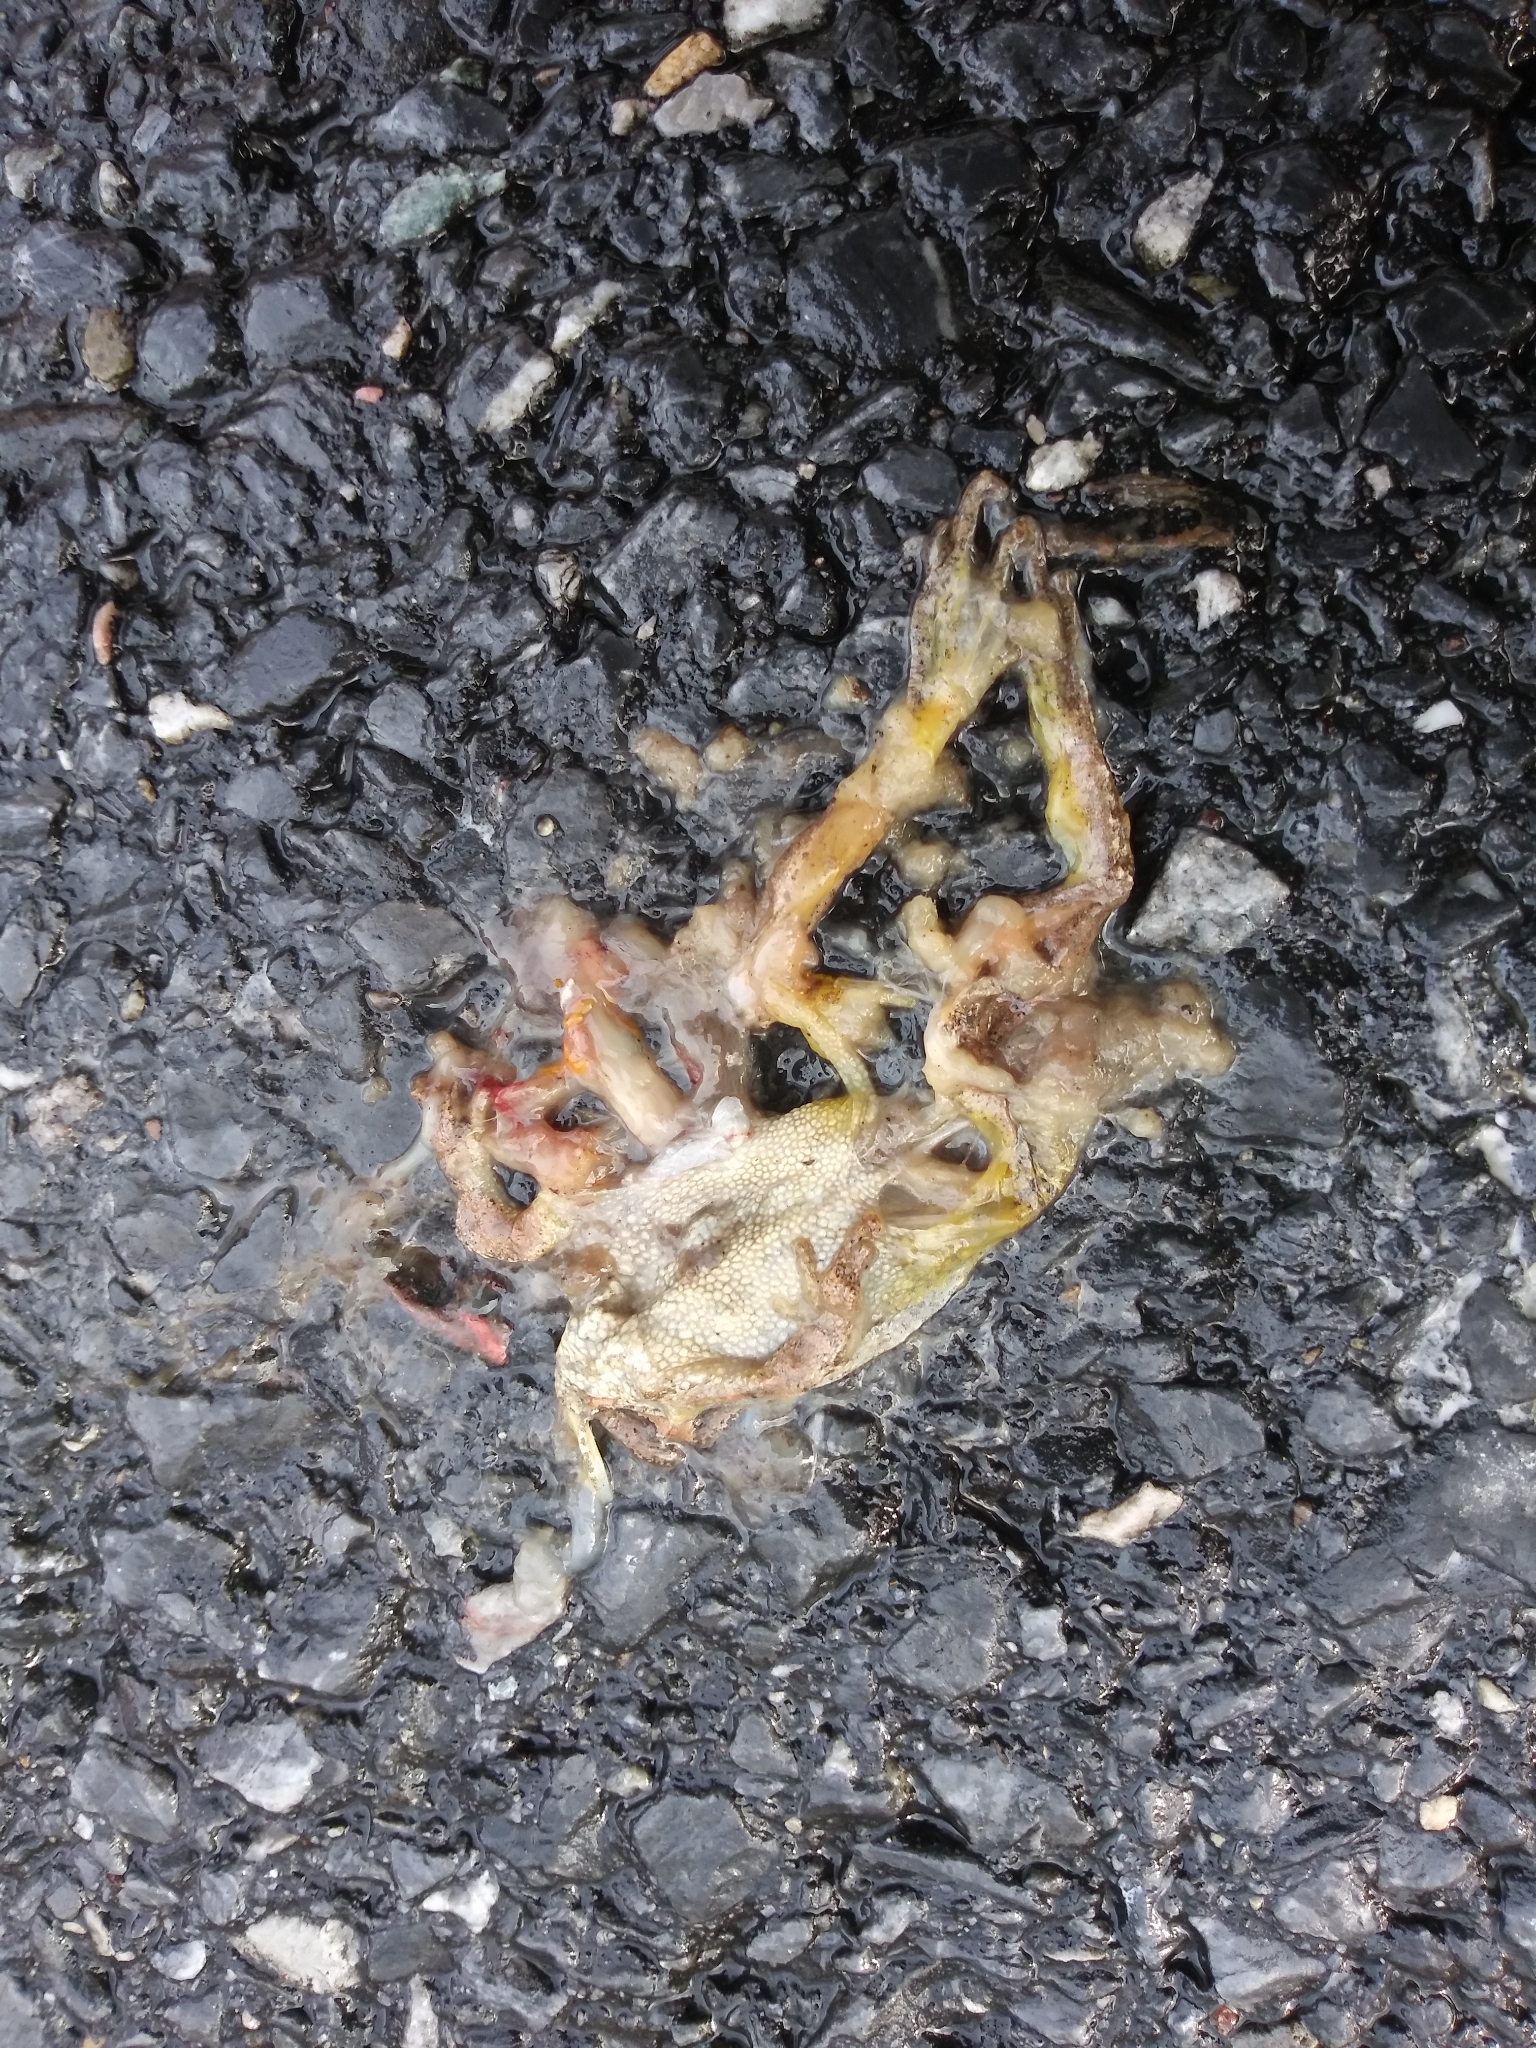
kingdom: Animalia
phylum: Chordata
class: Amphibia
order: Anura
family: Hylidae
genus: Pseudacris
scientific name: Pseudacris crucifer
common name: Spring peeper
